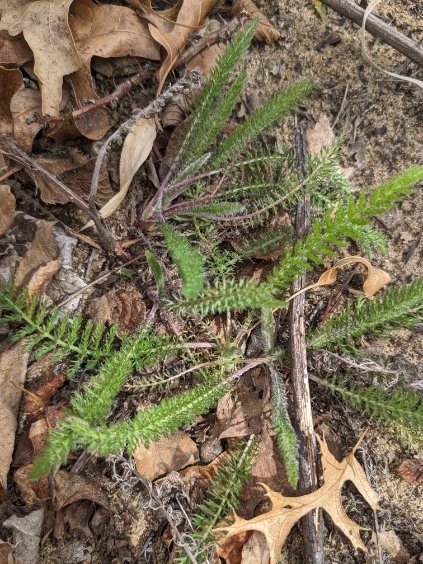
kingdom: Plantae
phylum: Tracheophyta
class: Magnoliopsida
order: Asterales
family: Asteraceae
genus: Achillea
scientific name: Achillea millefolium
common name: Yarrow
